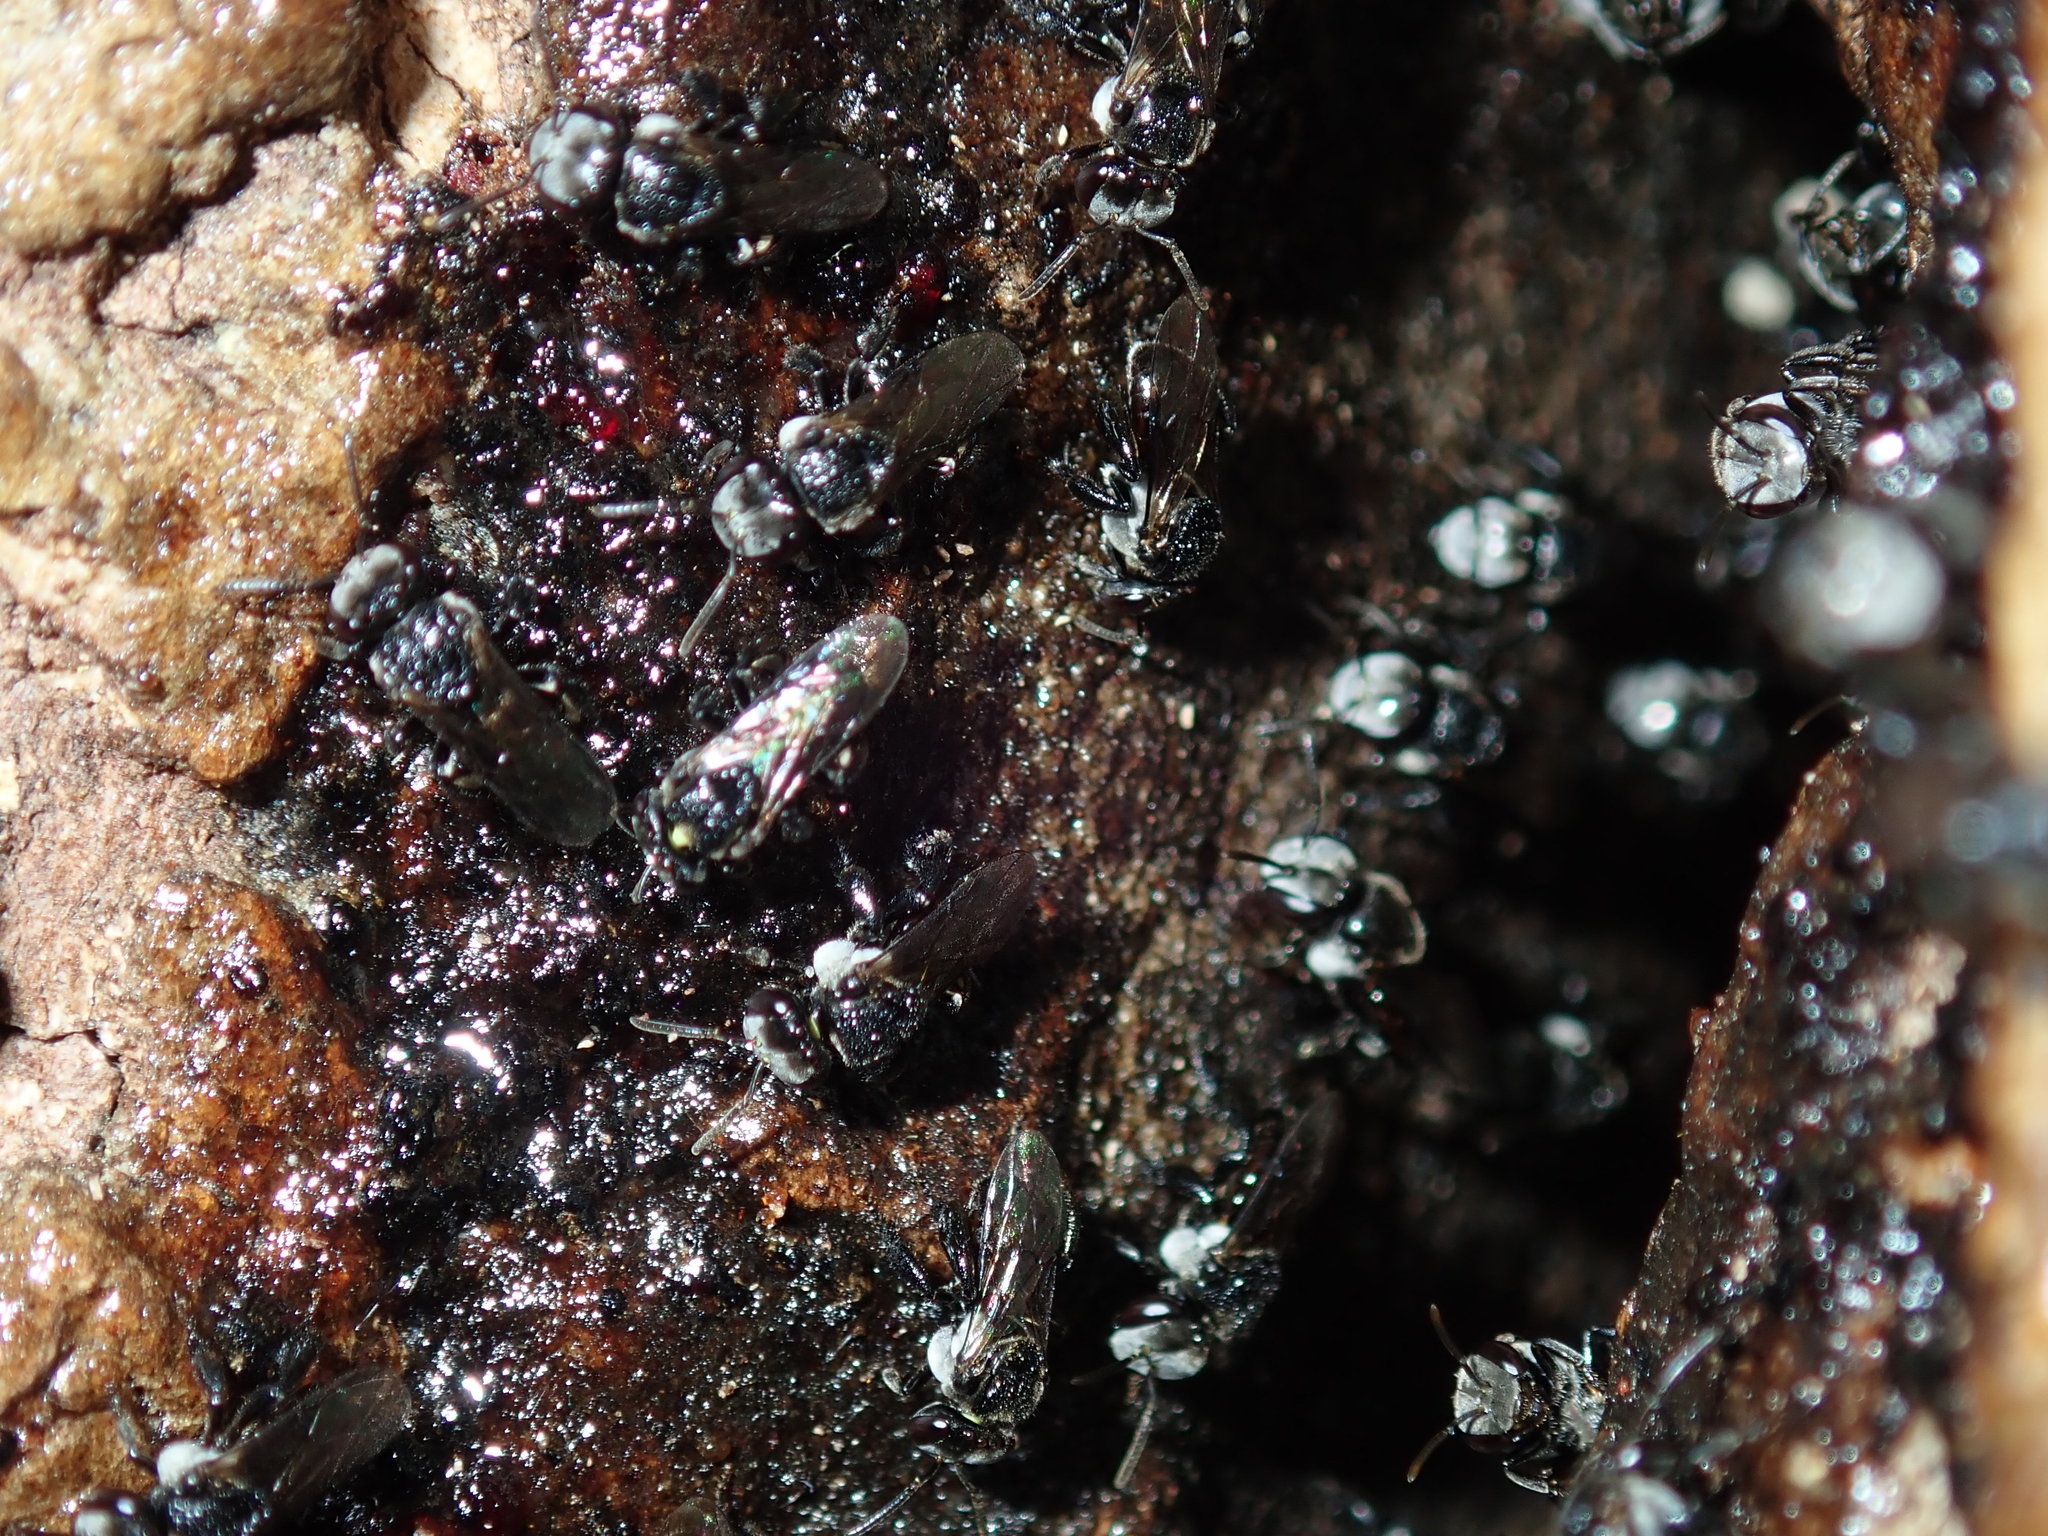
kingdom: Animalia
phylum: Arthropoda
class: Insecta
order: Hymenoptera
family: Apidae
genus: Tetragonula
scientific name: Tetragonula carbonaria
